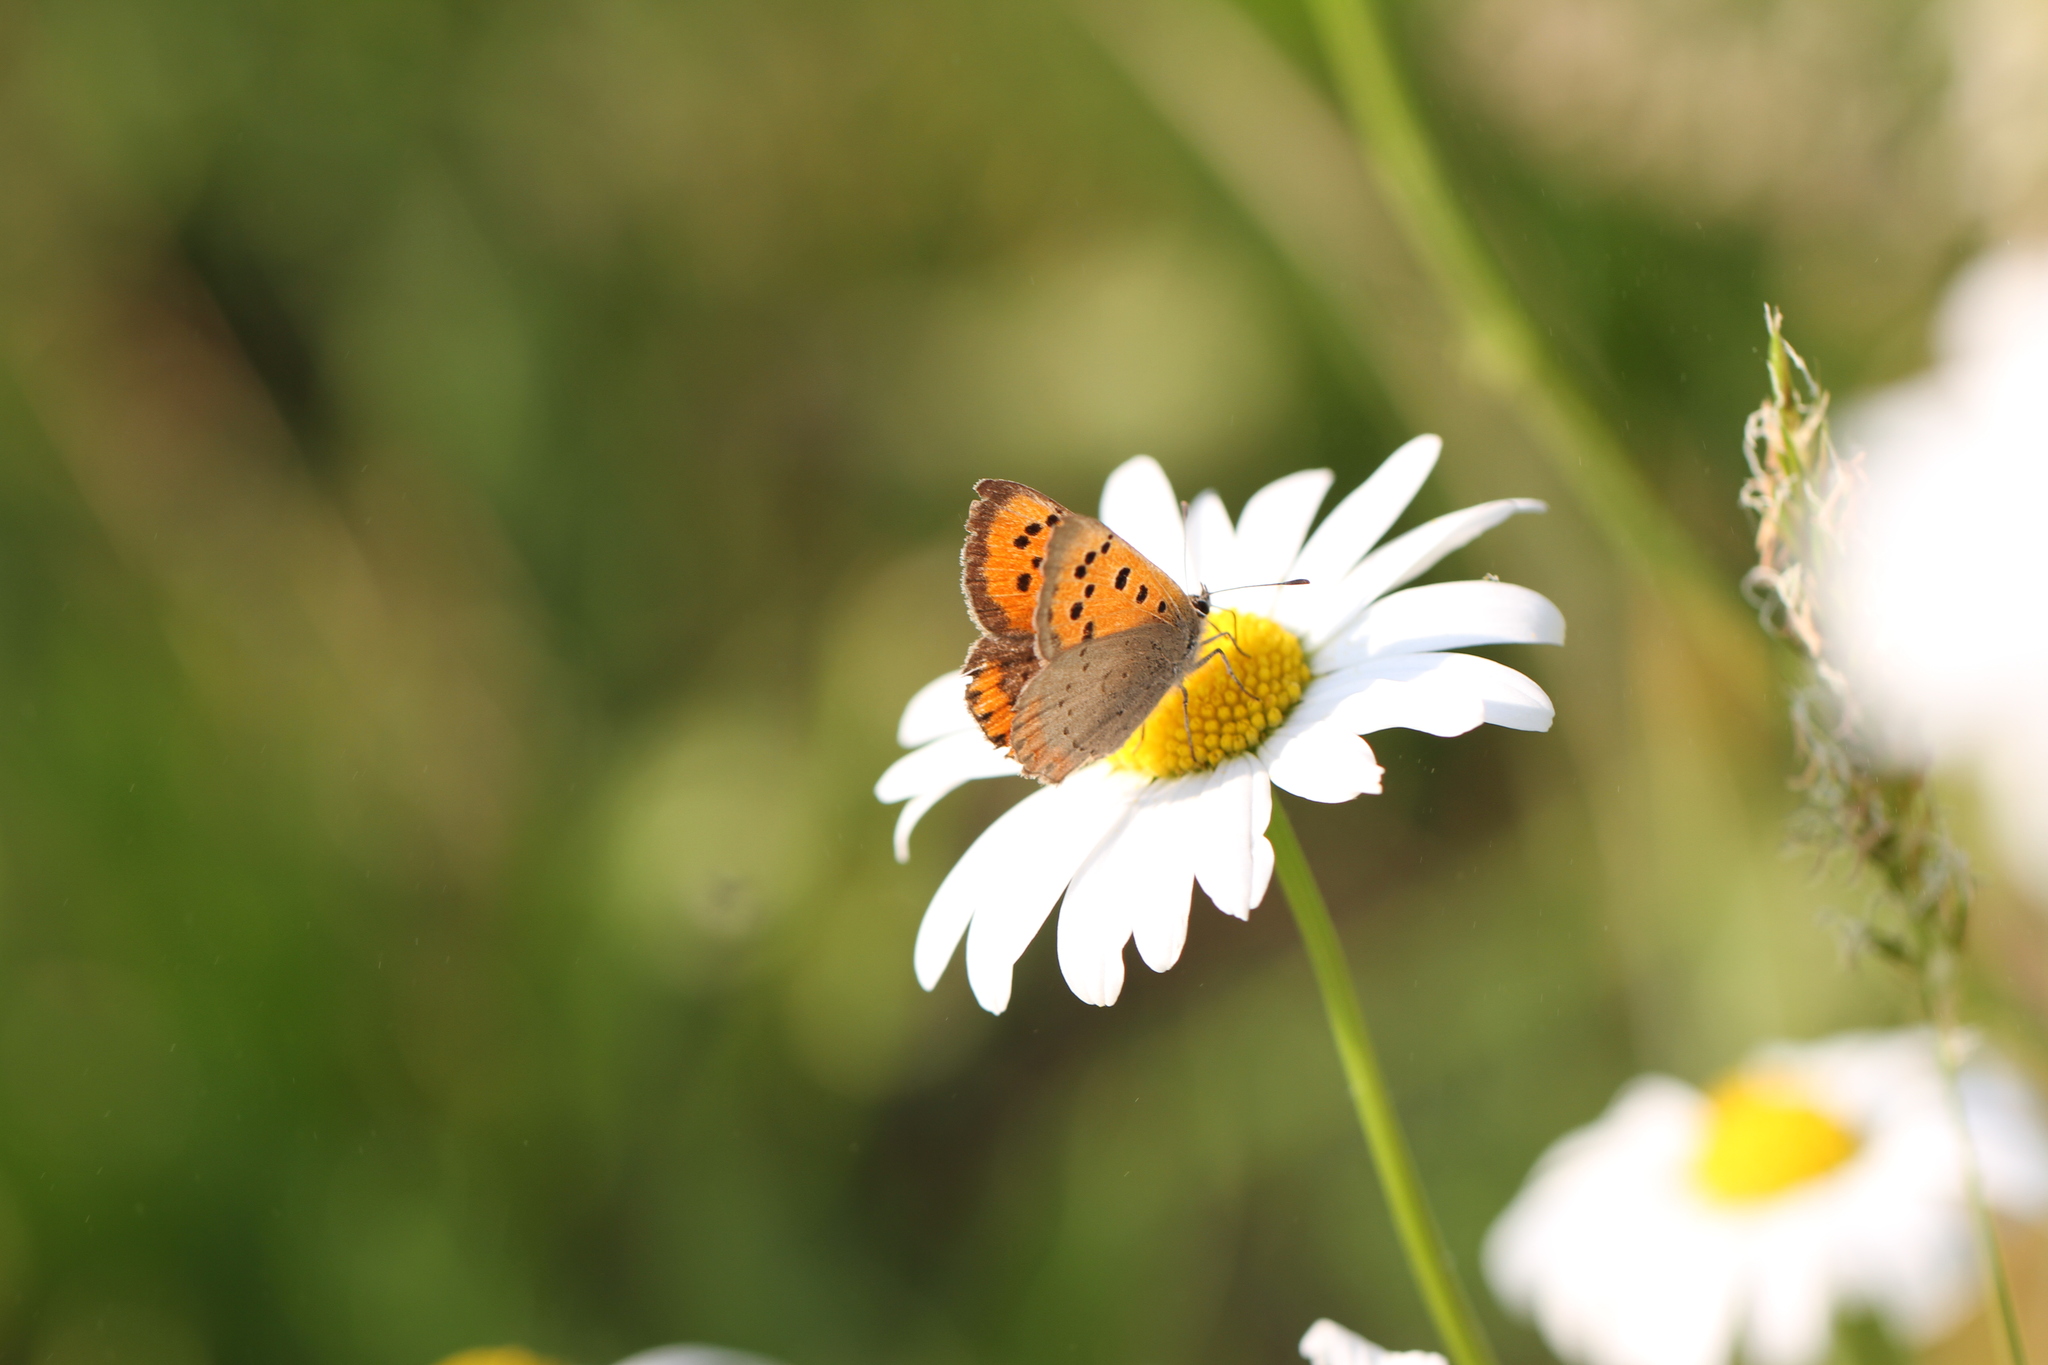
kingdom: Animalia
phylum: Arthropoda
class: Insecta
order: Lepidoptera
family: Lycaenidae
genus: Lycaena
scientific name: Lycaena phlaeas
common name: Small copper
